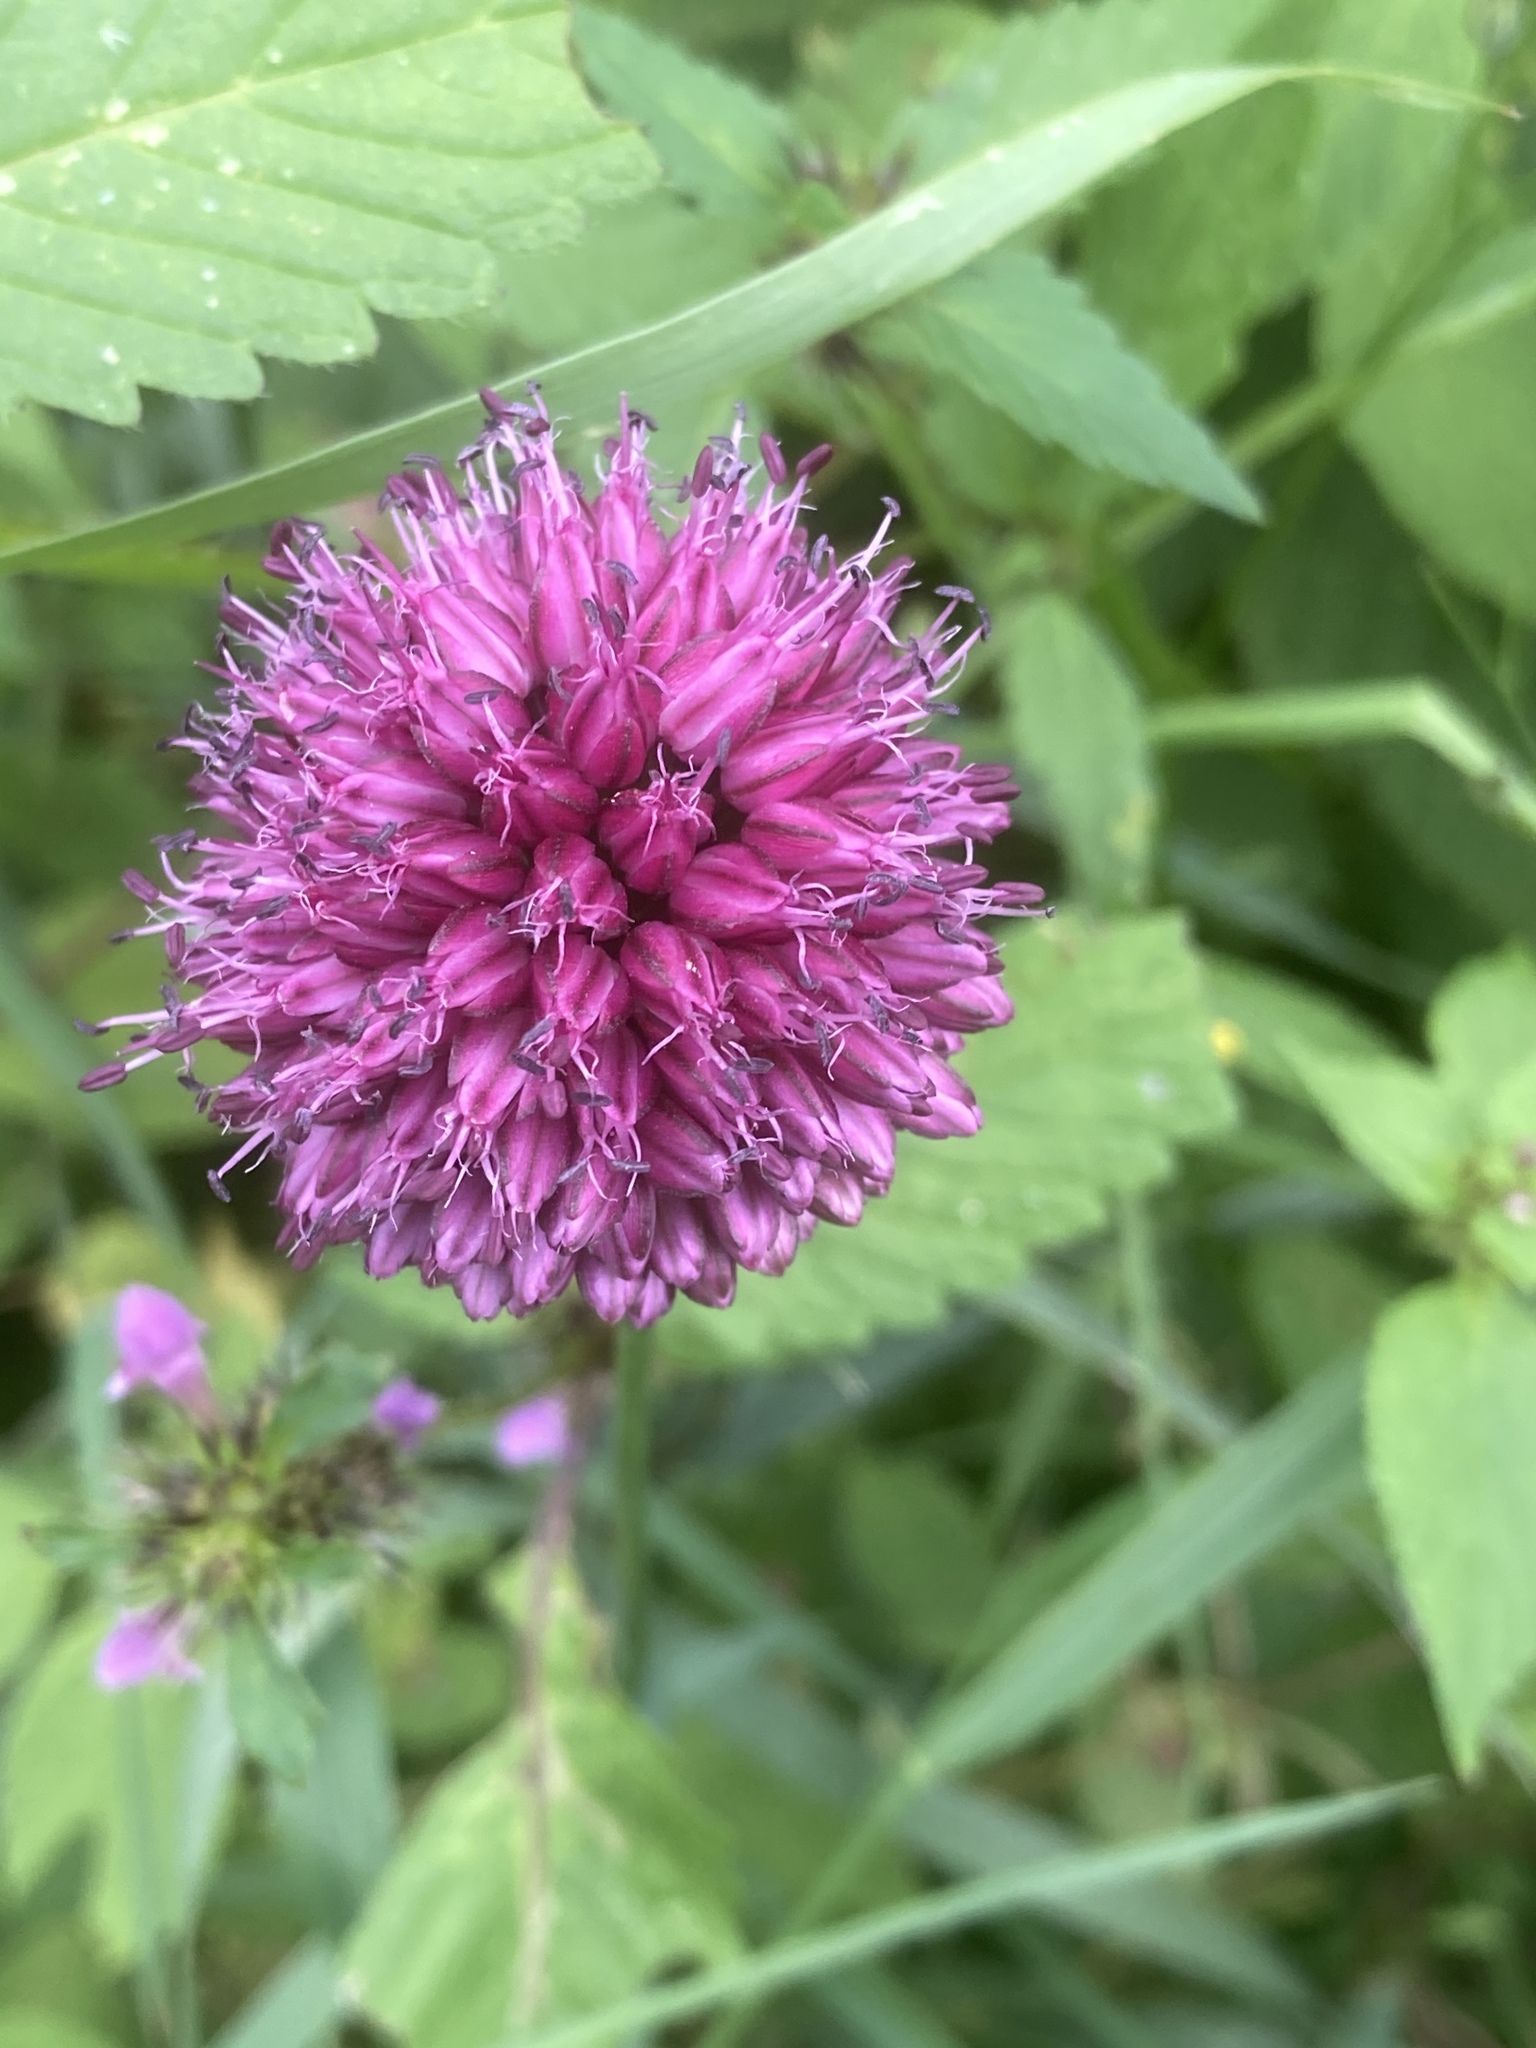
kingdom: Plantae
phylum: Tracheophyta
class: Liliopsida
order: Asparagales
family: Amaryllidaceae
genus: Allium
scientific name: Allium sphaerocephalon
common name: Round-headed leek
